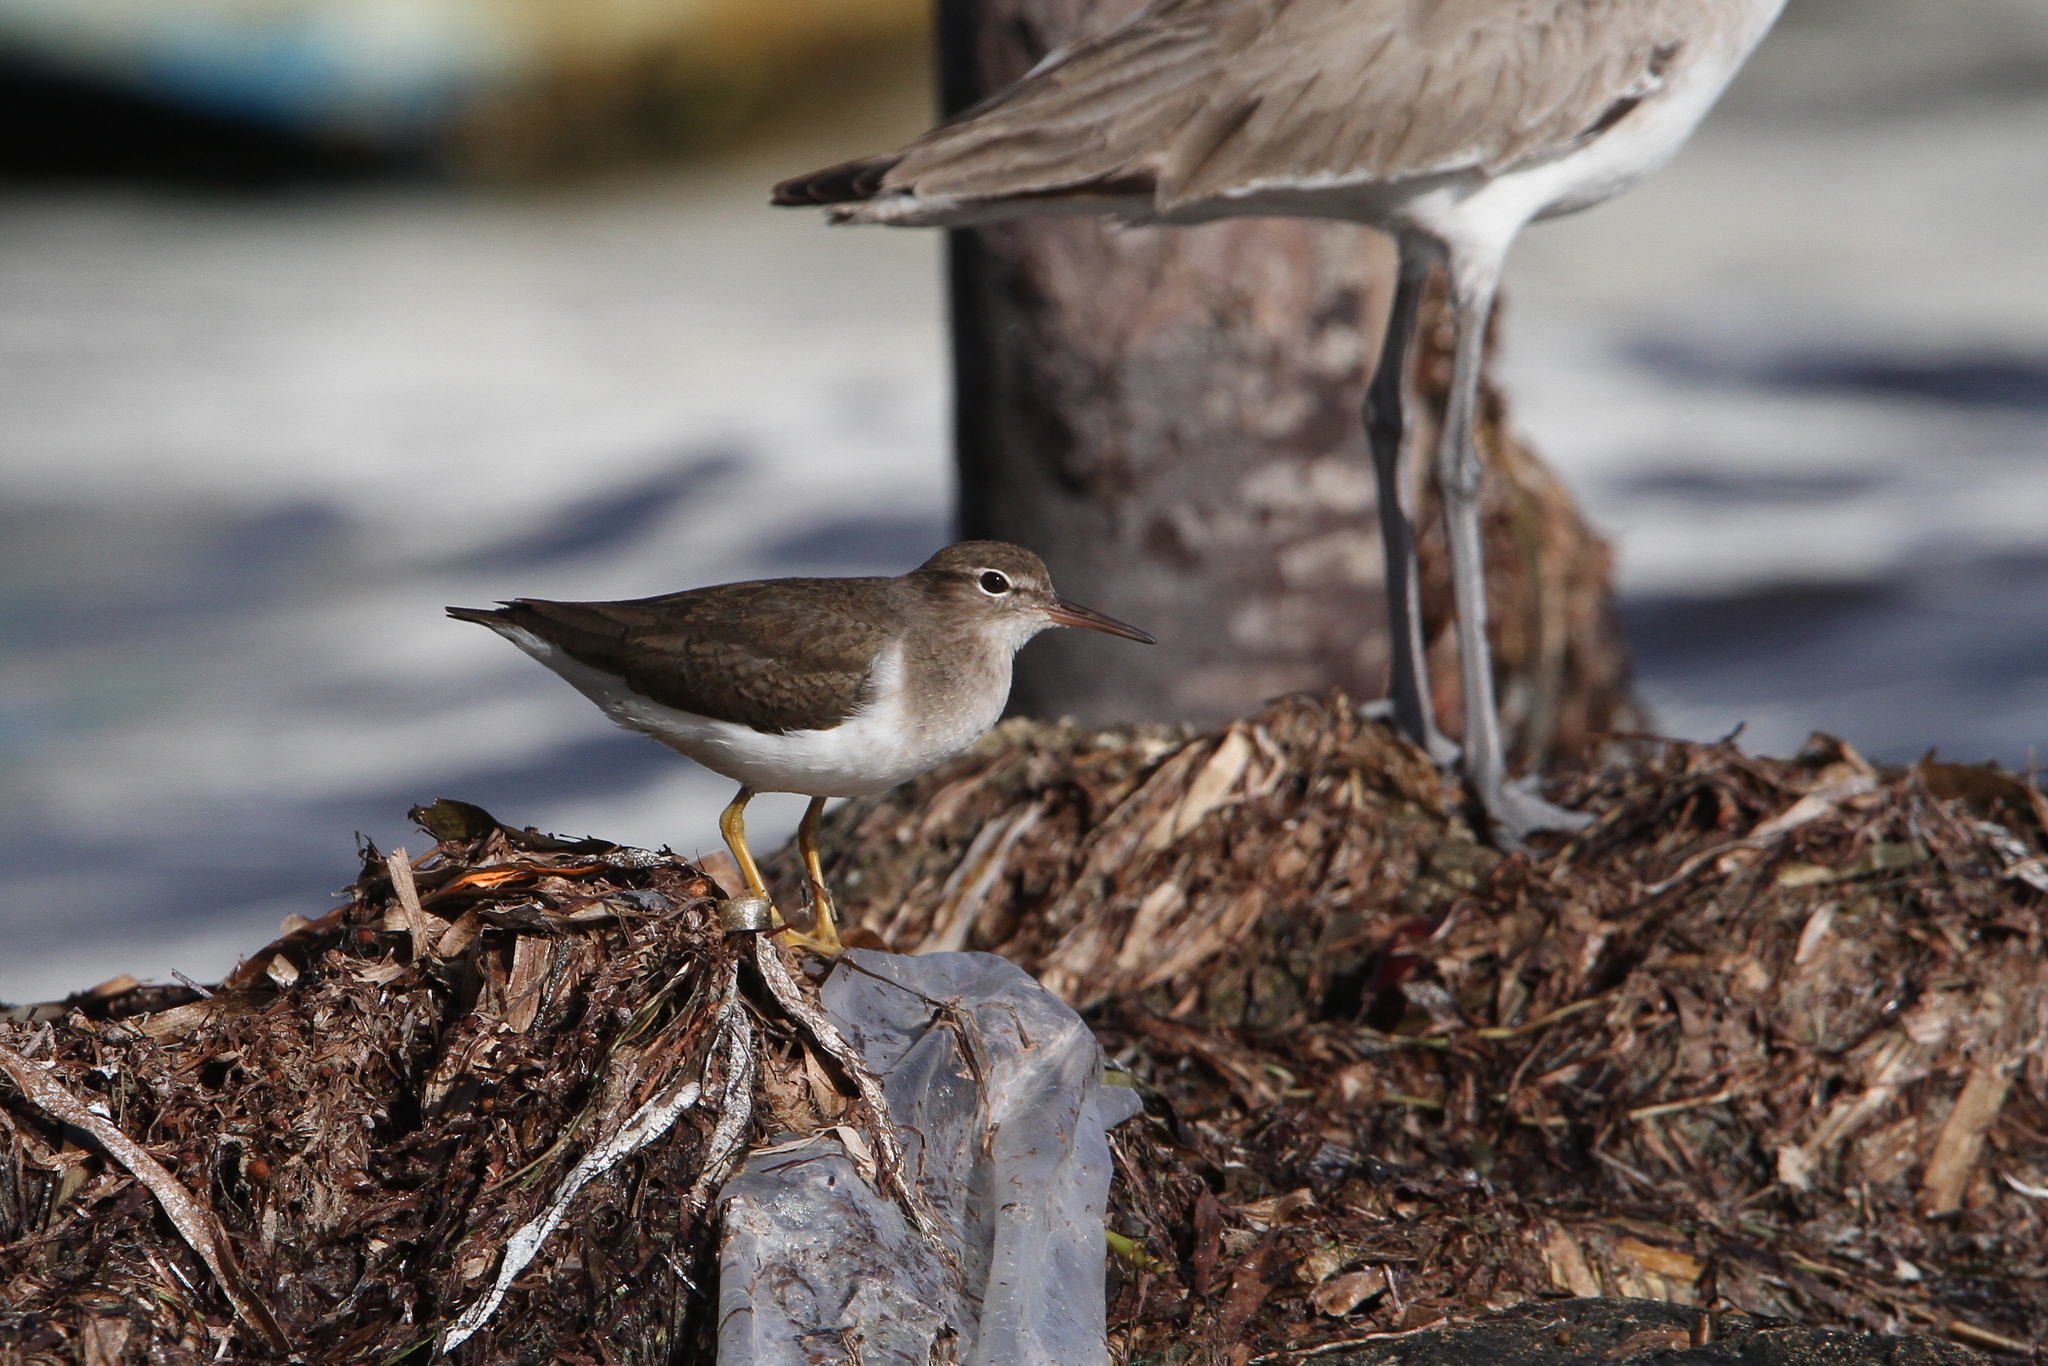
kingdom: Animalia
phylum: Chordata
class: Aves
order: Charadriiformes
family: Scolopacidae
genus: Actitis
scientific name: Actitis macularius
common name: Spotted sandpiper
